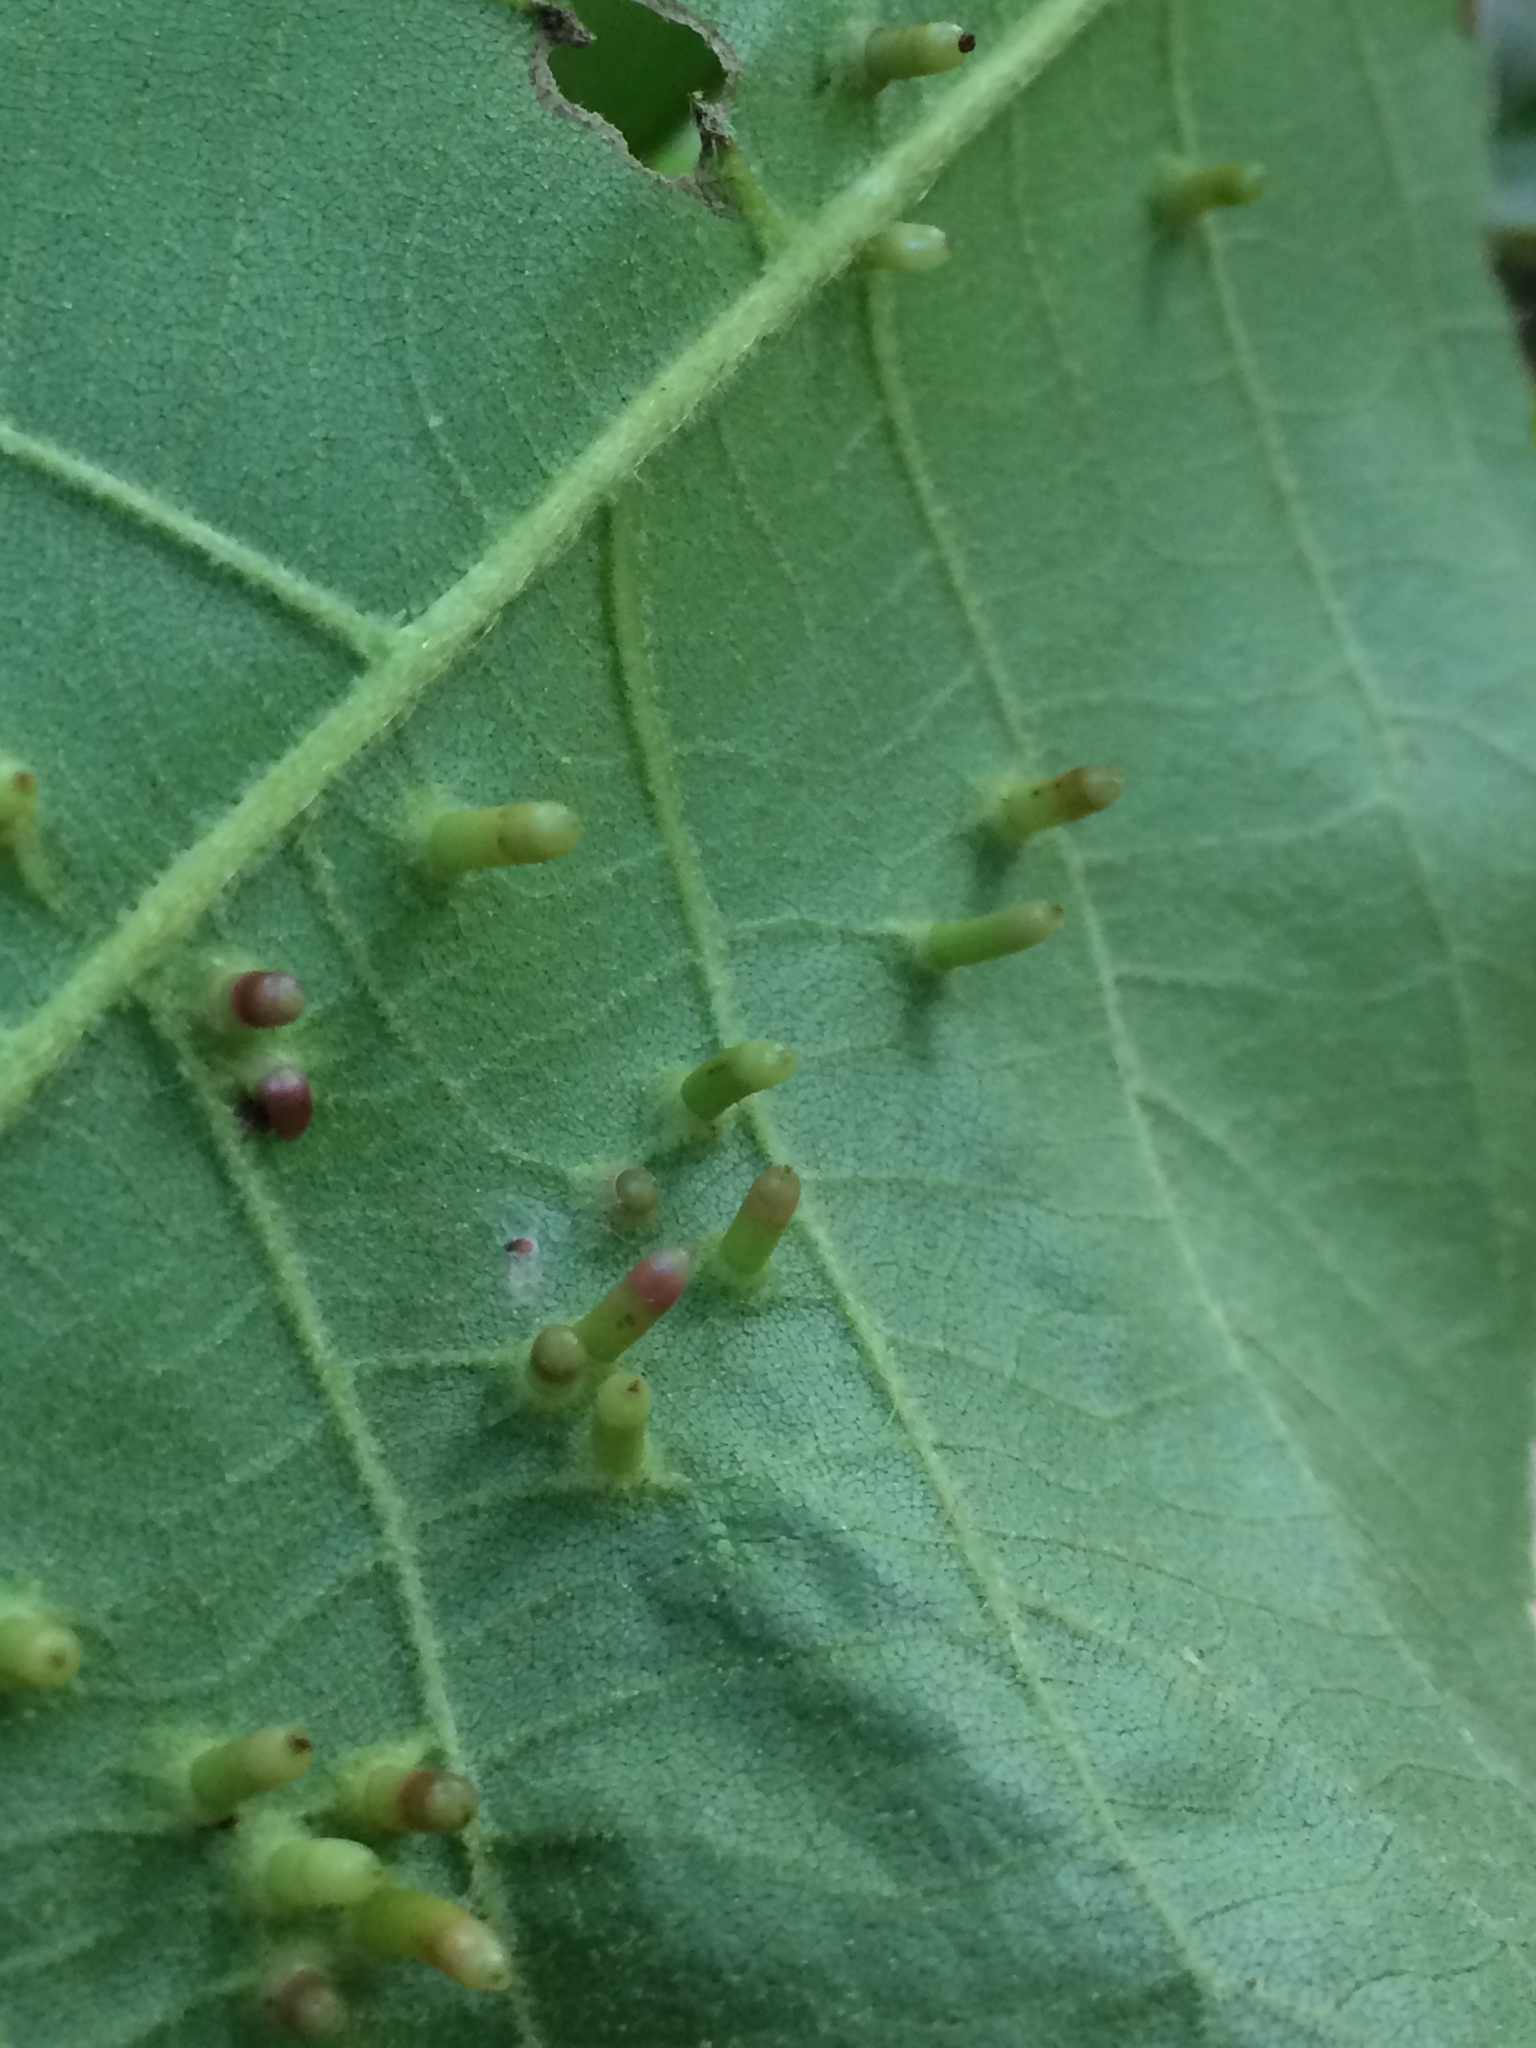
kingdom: Animalia
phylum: Arthropoda
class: Insecta
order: Diptera
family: Cecidomyiidae
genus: Caryomyia
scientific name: Caryomyia tubicola
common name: Hickory bullet gall midge
